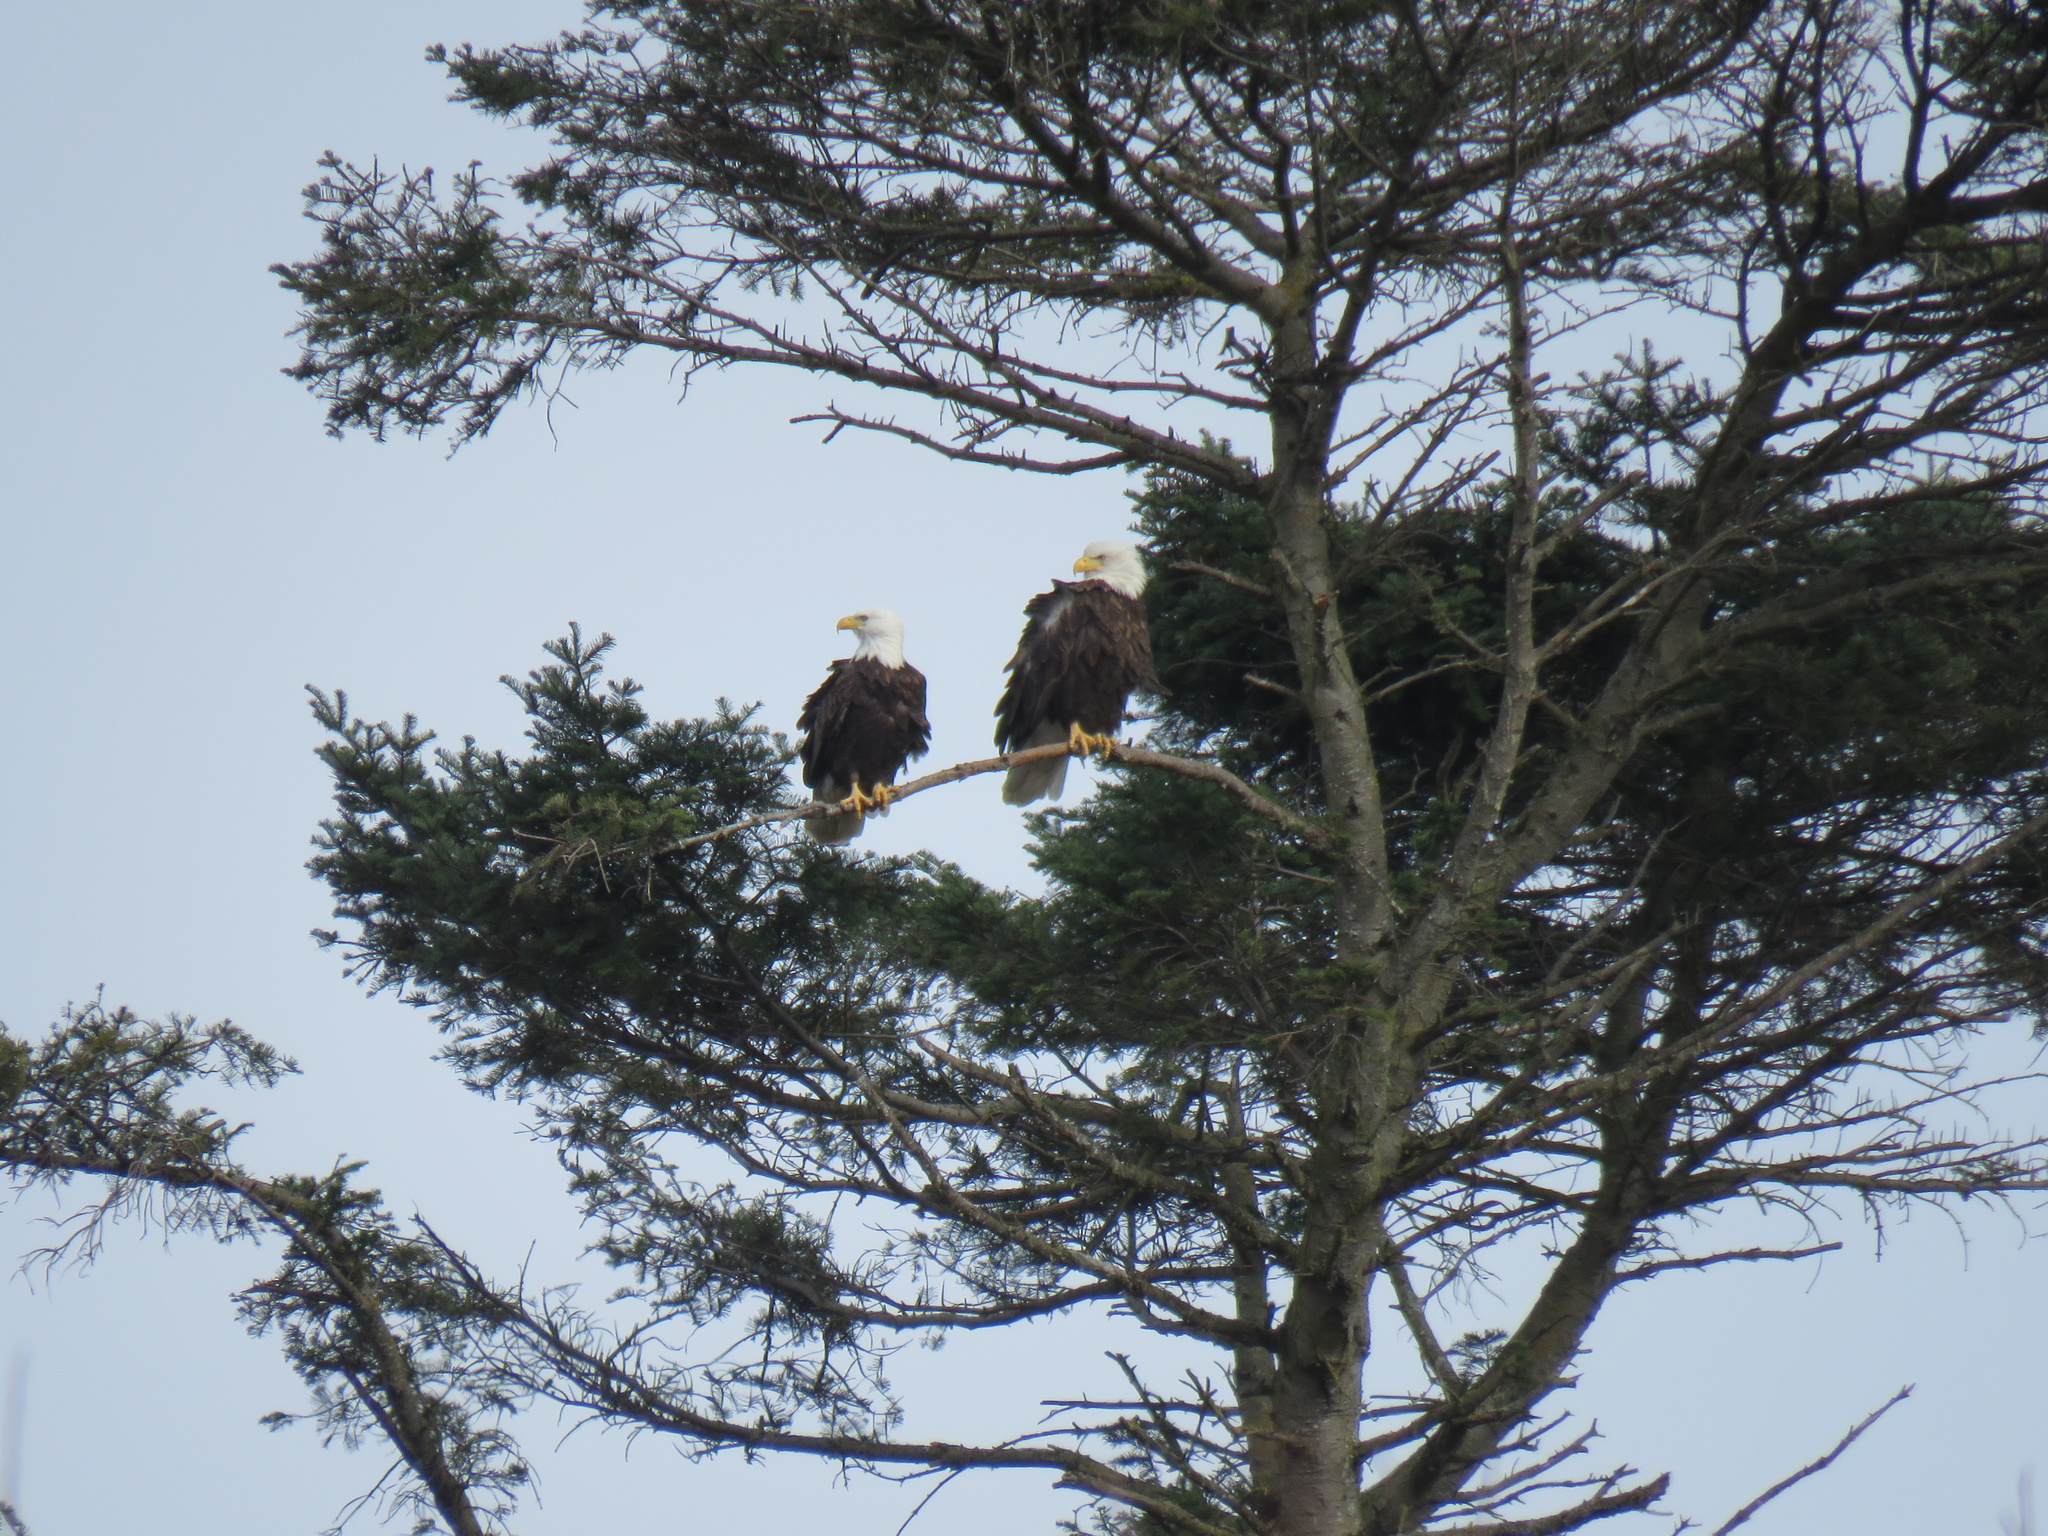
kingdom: Animalia
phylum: Chordata
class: Aves
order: Accipitriformes
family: Accipitridae
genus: Haliaeetus
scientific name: Haliaeetus leucocephalus
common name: Bald eagle
